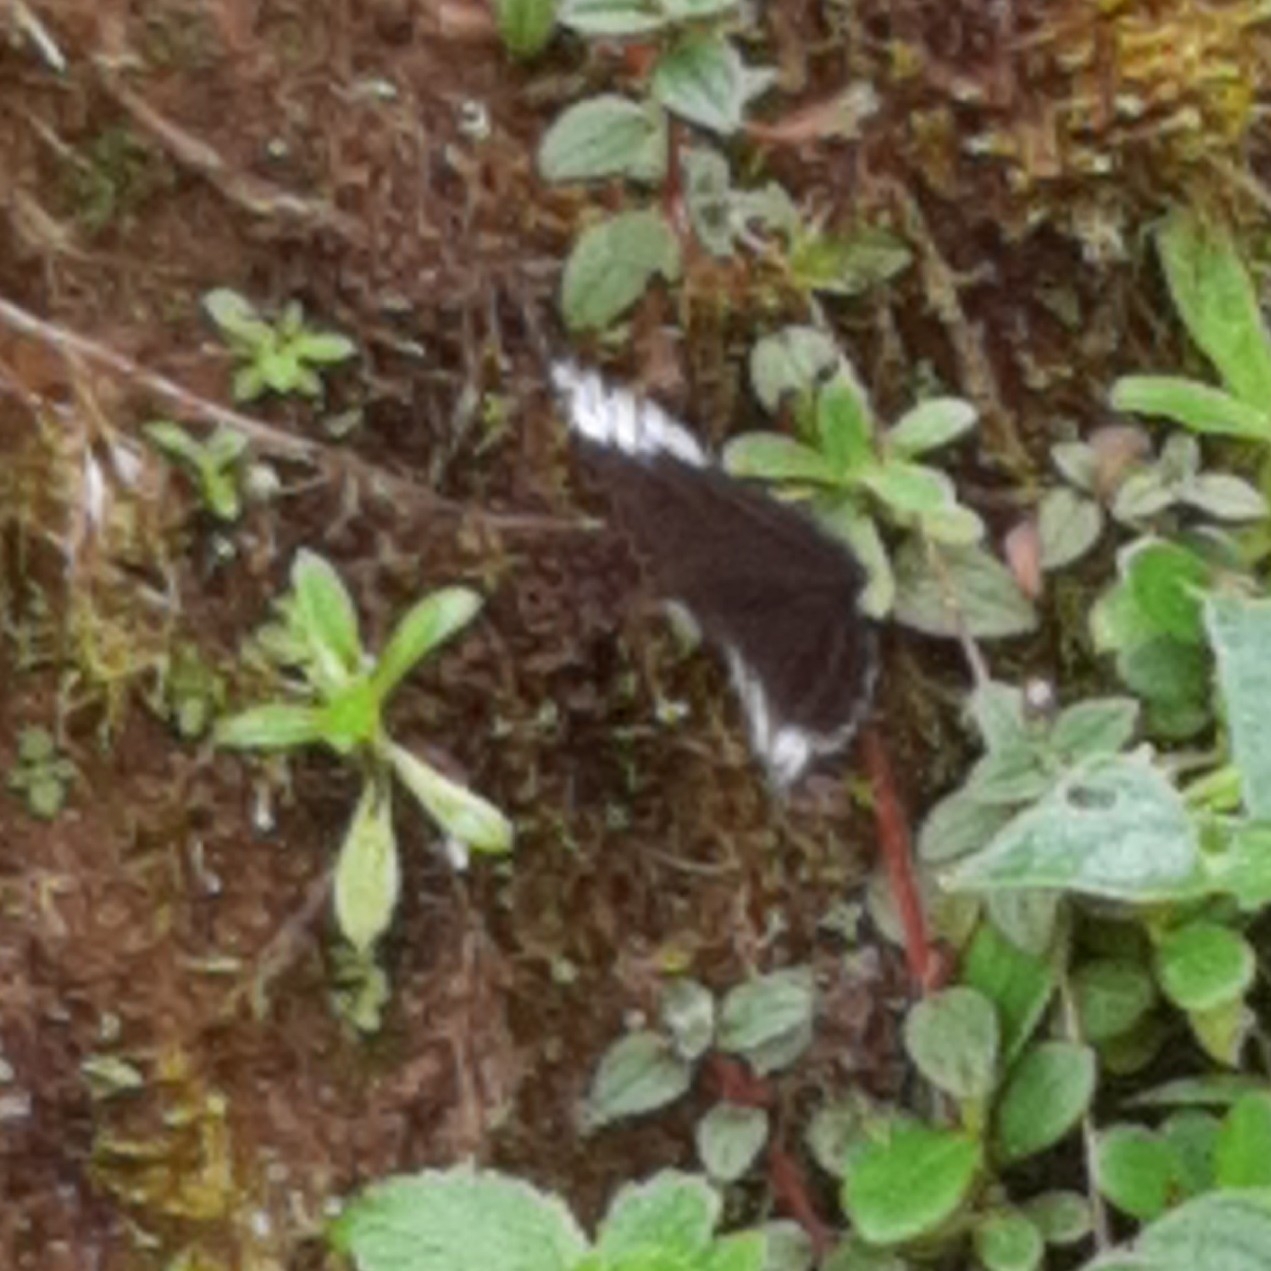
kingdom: Animalia
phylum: Arthropoda
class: Insecta
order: Lepidoptera
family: Nymphalidae
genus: Limenitis
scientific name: Limenitis Adelpha demialba
